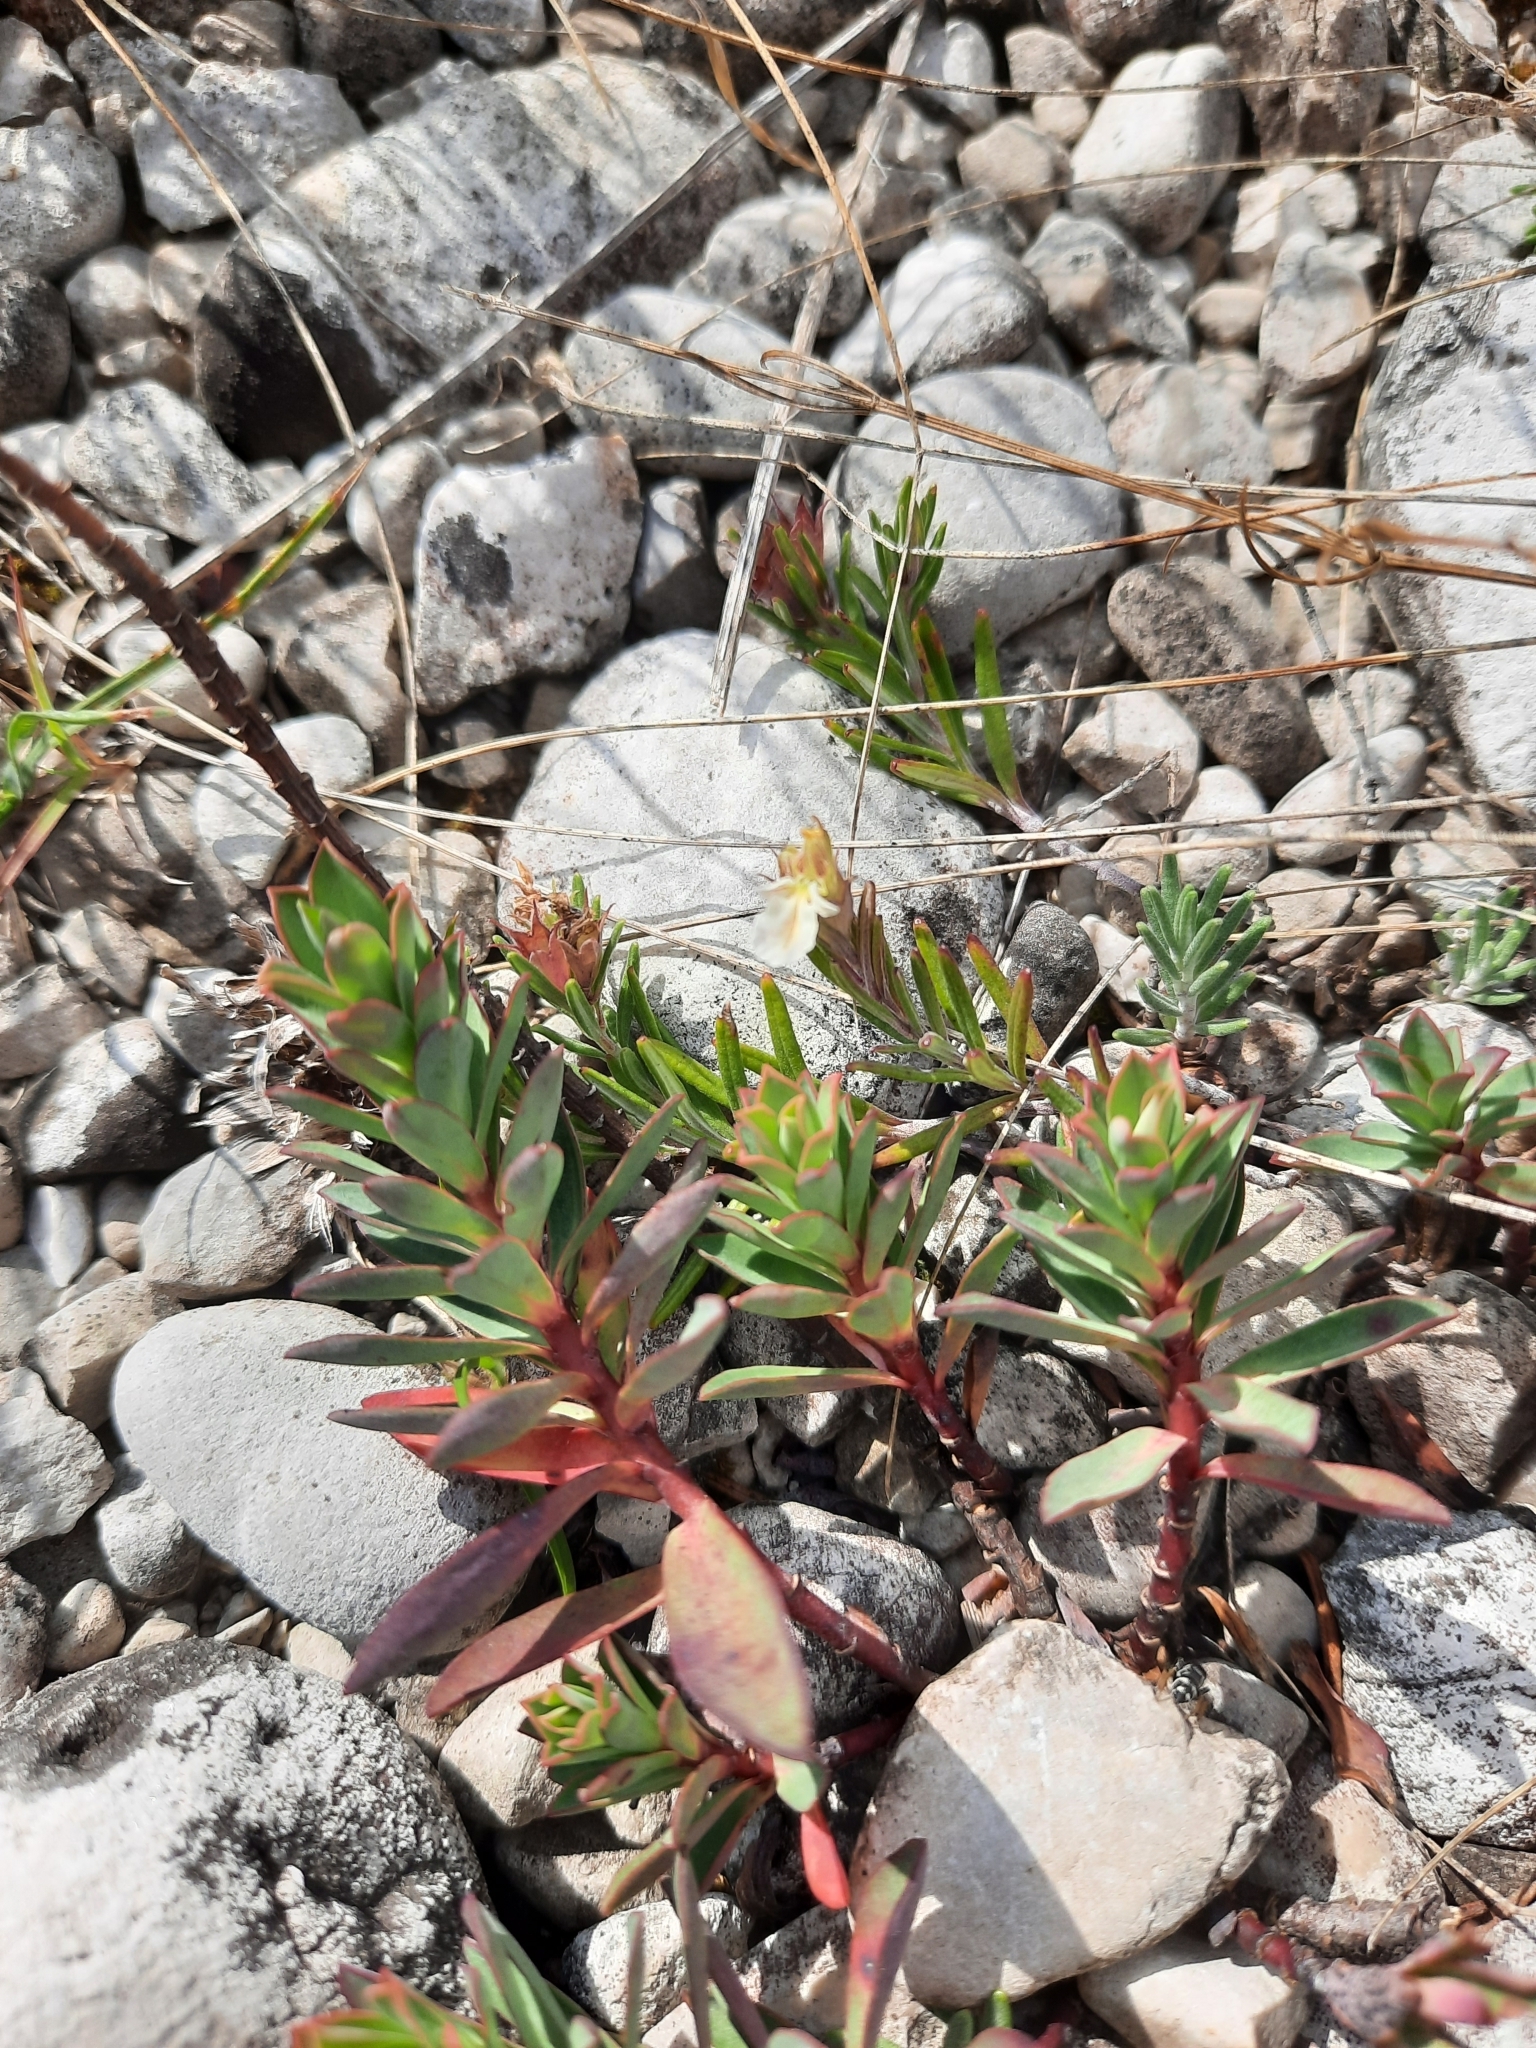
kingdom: Plantae
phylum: Tracheophyta
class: Magnoliopsida
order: Malpighiales
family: Euphorbiaceae
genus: Euphorbia
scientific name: Euphorbia nicaeensis
